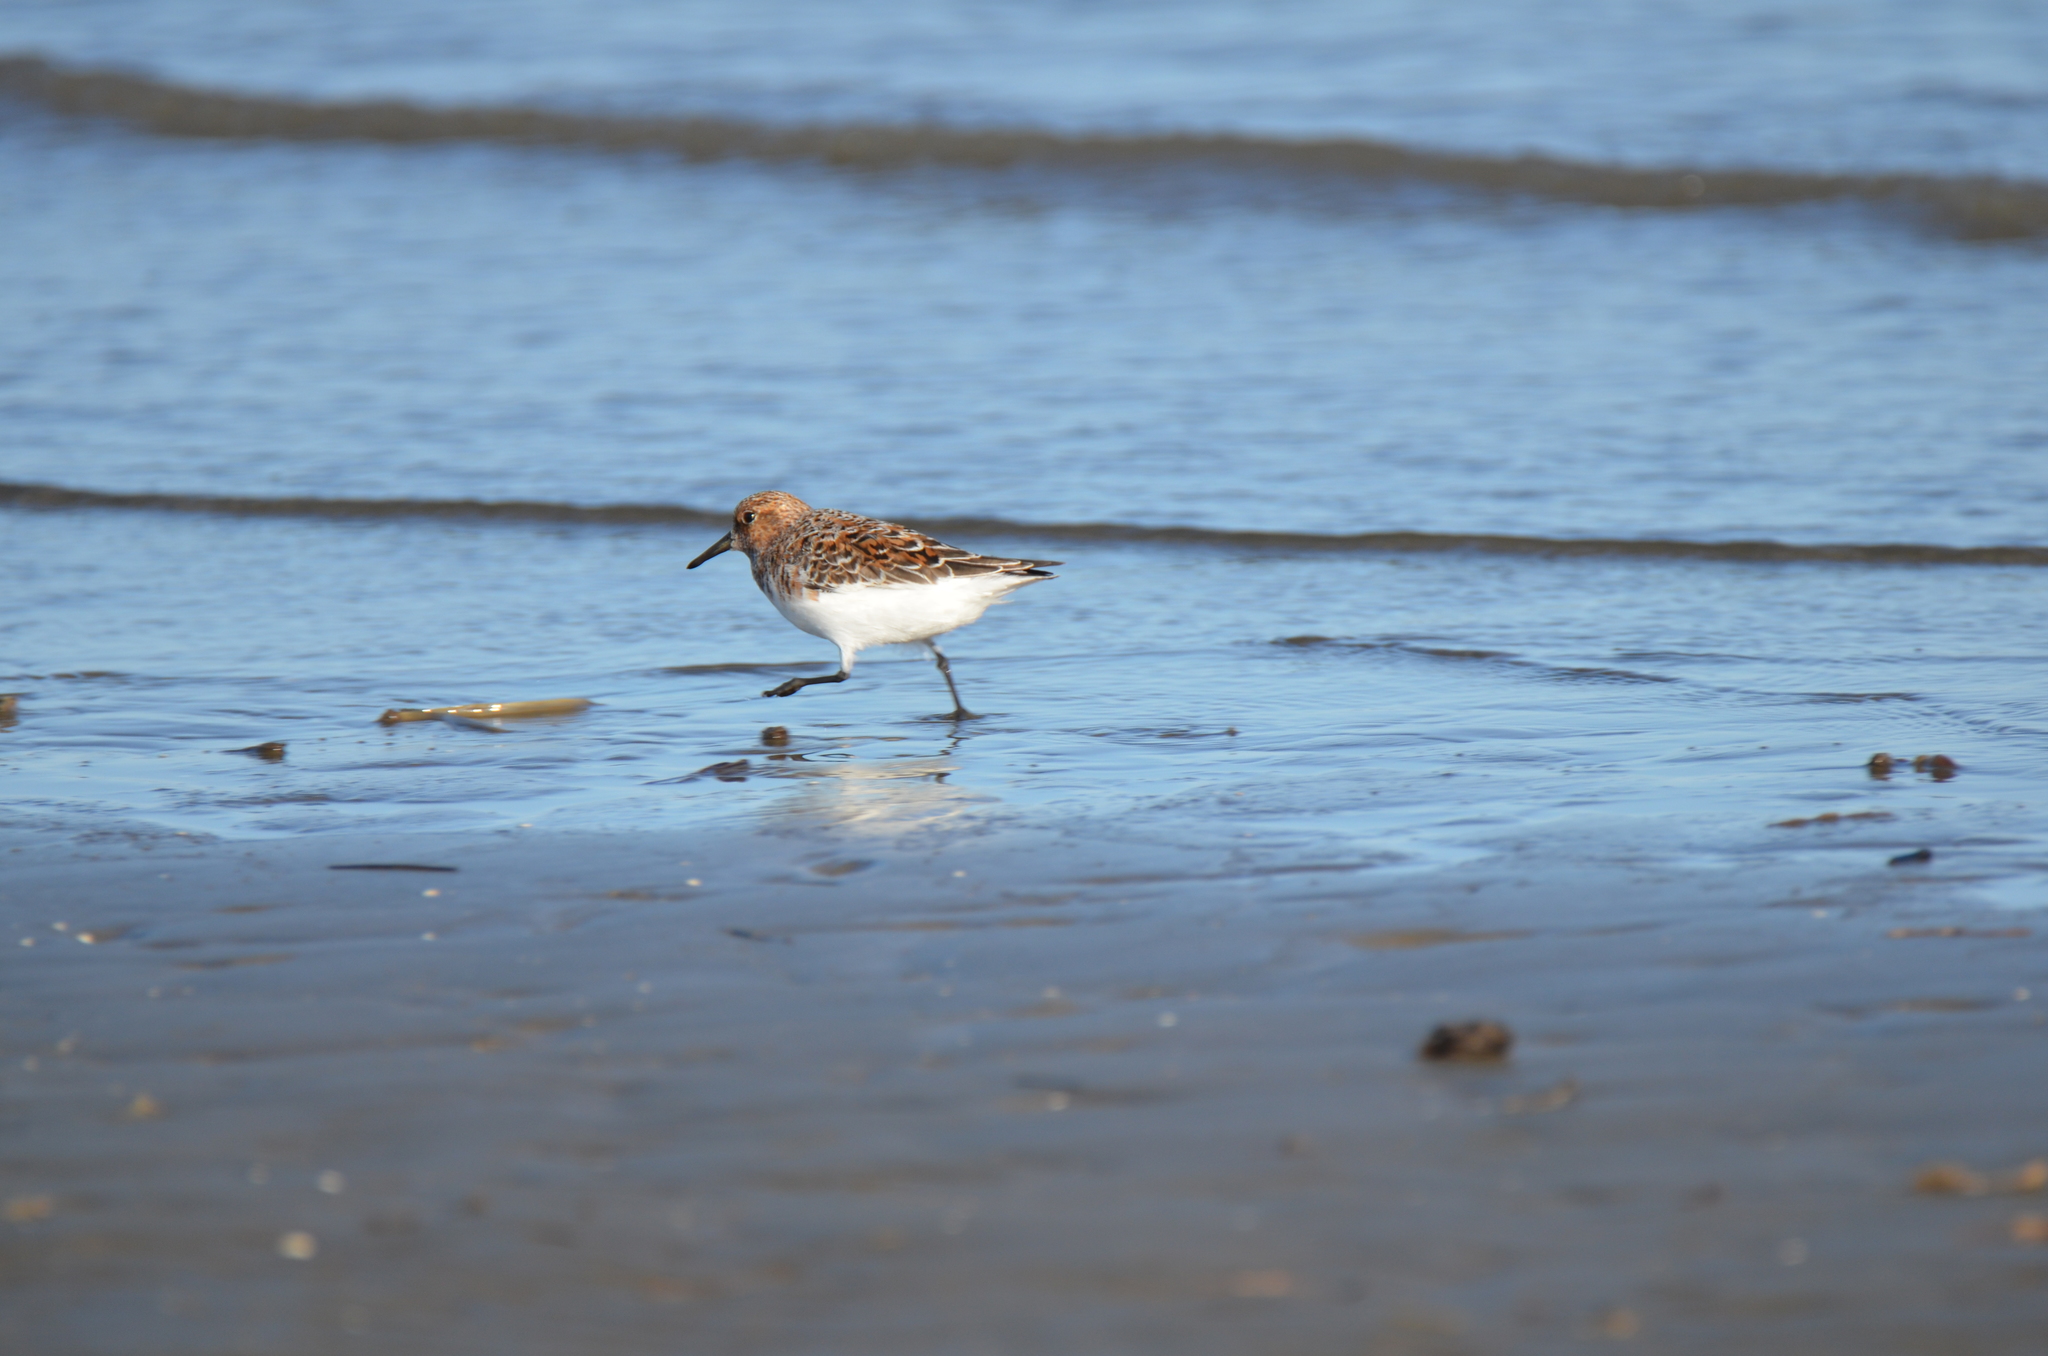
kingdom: Animalia
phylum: Chordata
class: Aves
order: Charadriiformes
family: Scolopacidae
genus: Calidris
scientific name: Calidris alba
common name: Sanderling
